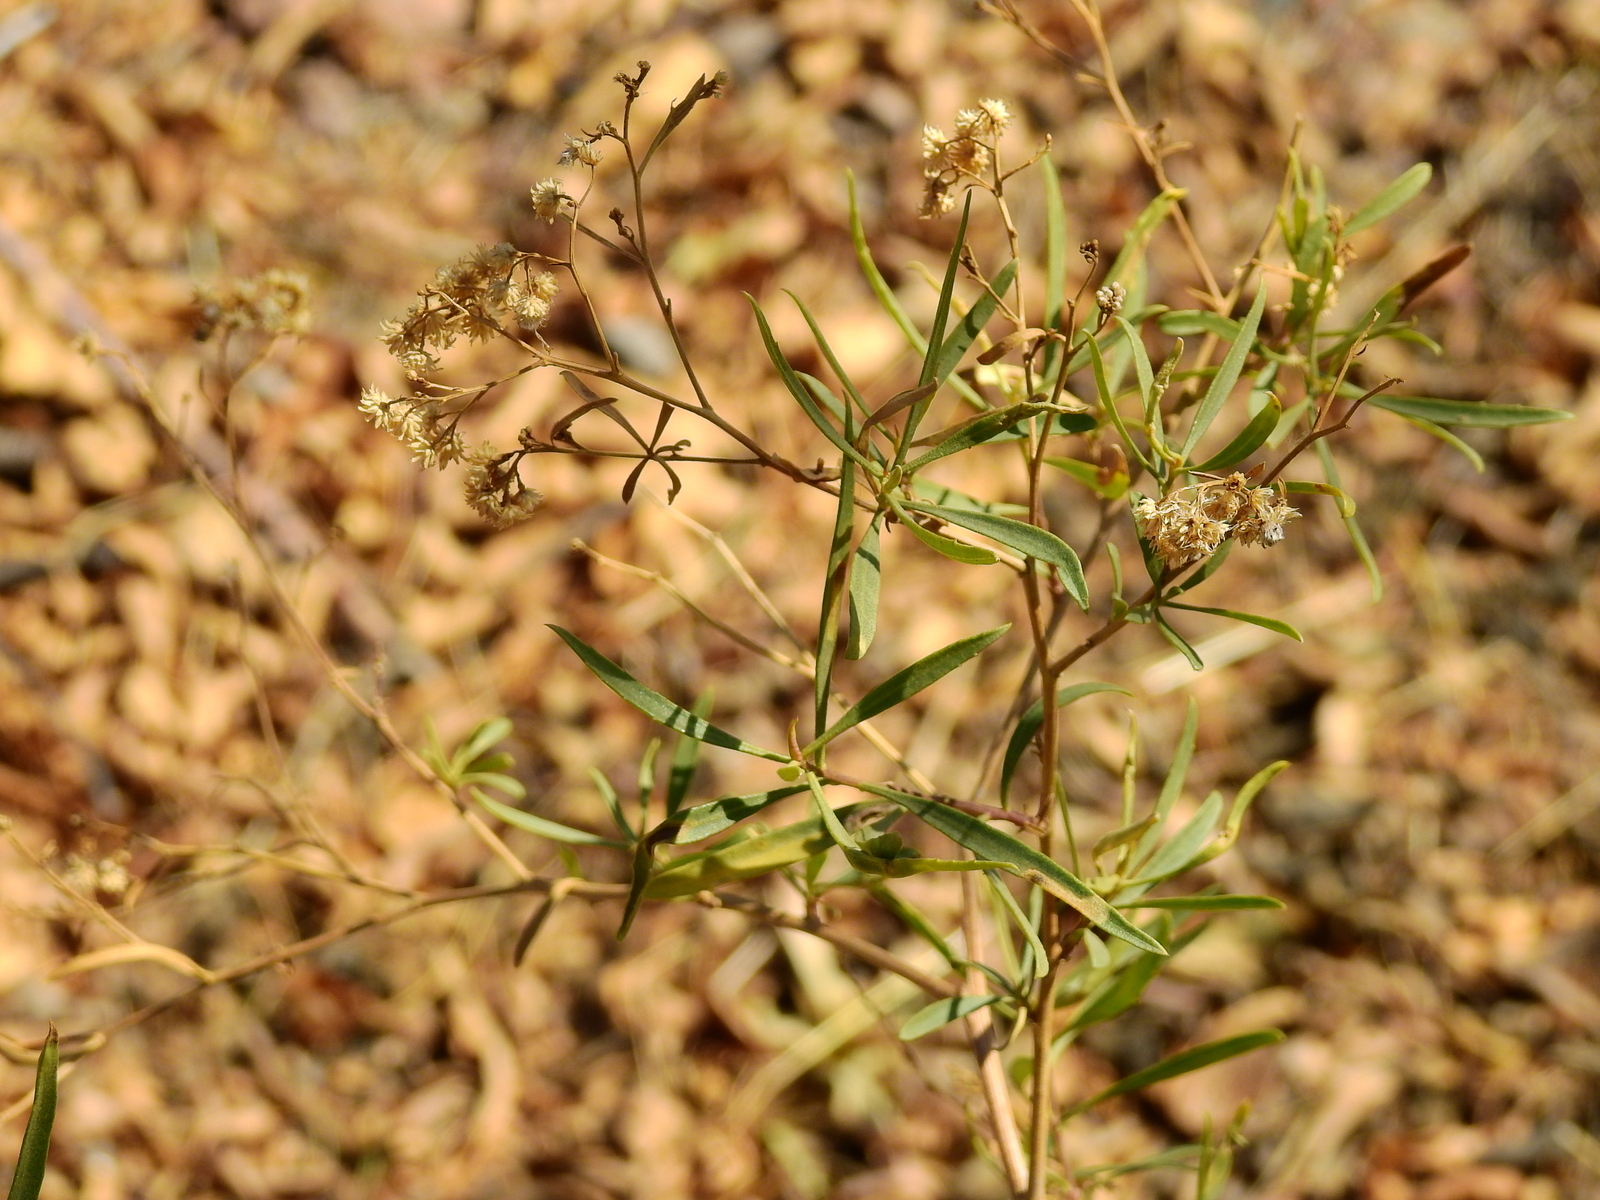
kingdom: Plantae
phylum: Tracheophyta
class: Magnoliopsida
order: Asterales
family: Asteraceae
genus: Baccharis
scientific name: Baccharis salicifolia
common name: Sticky baccharis
